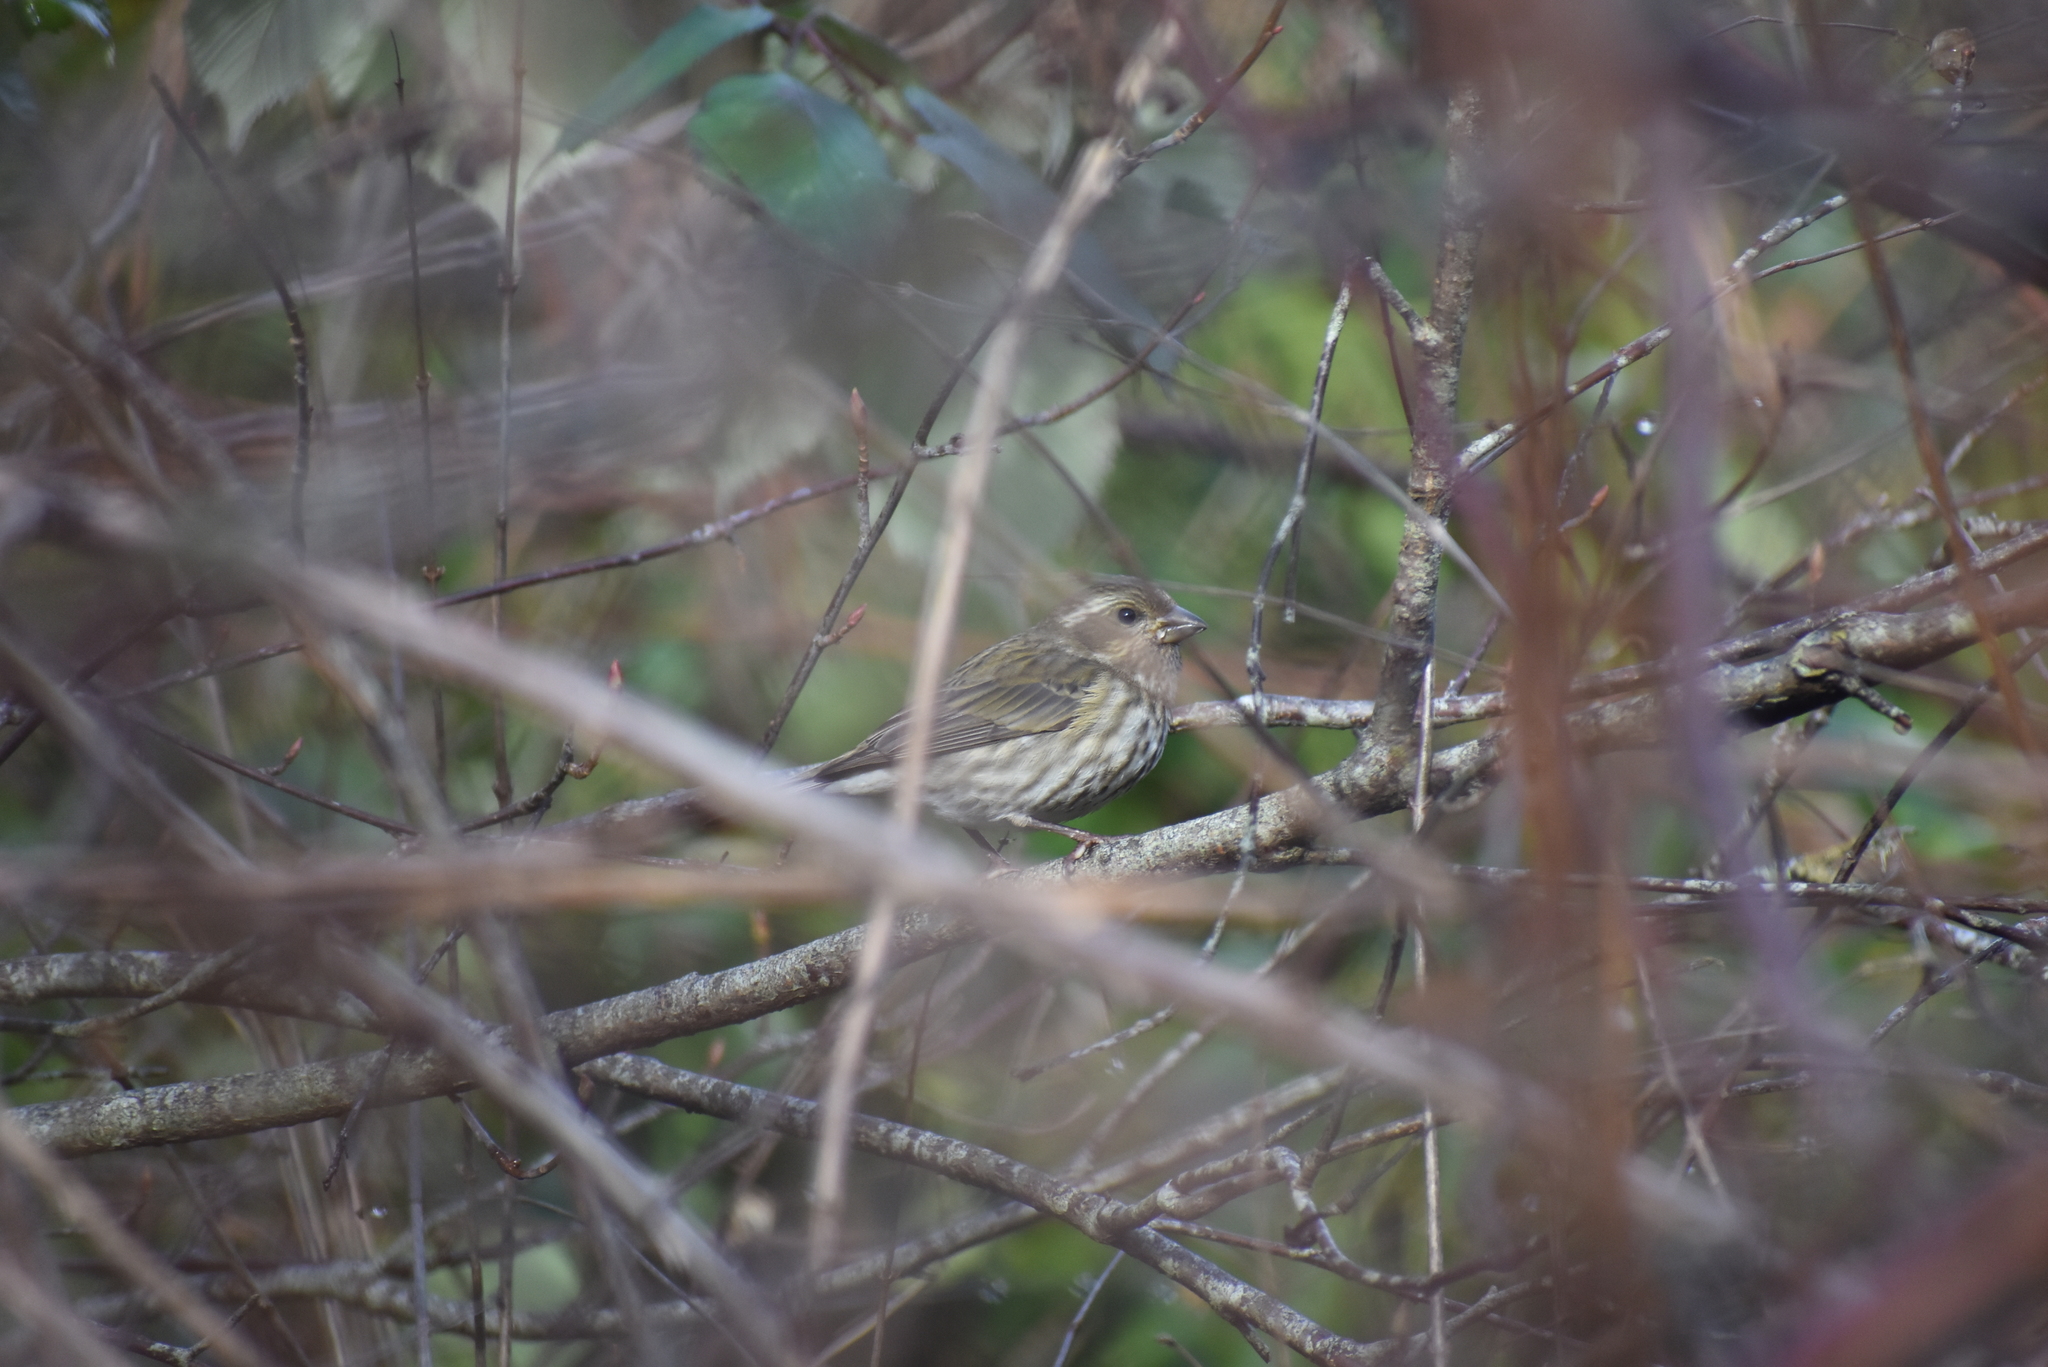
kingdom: Animalia
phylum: Chordata
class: Aves
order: Passeriformes
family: Fringillidae
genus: Haemorhous
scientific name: Haemorhous purpureus
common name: Purple finch
